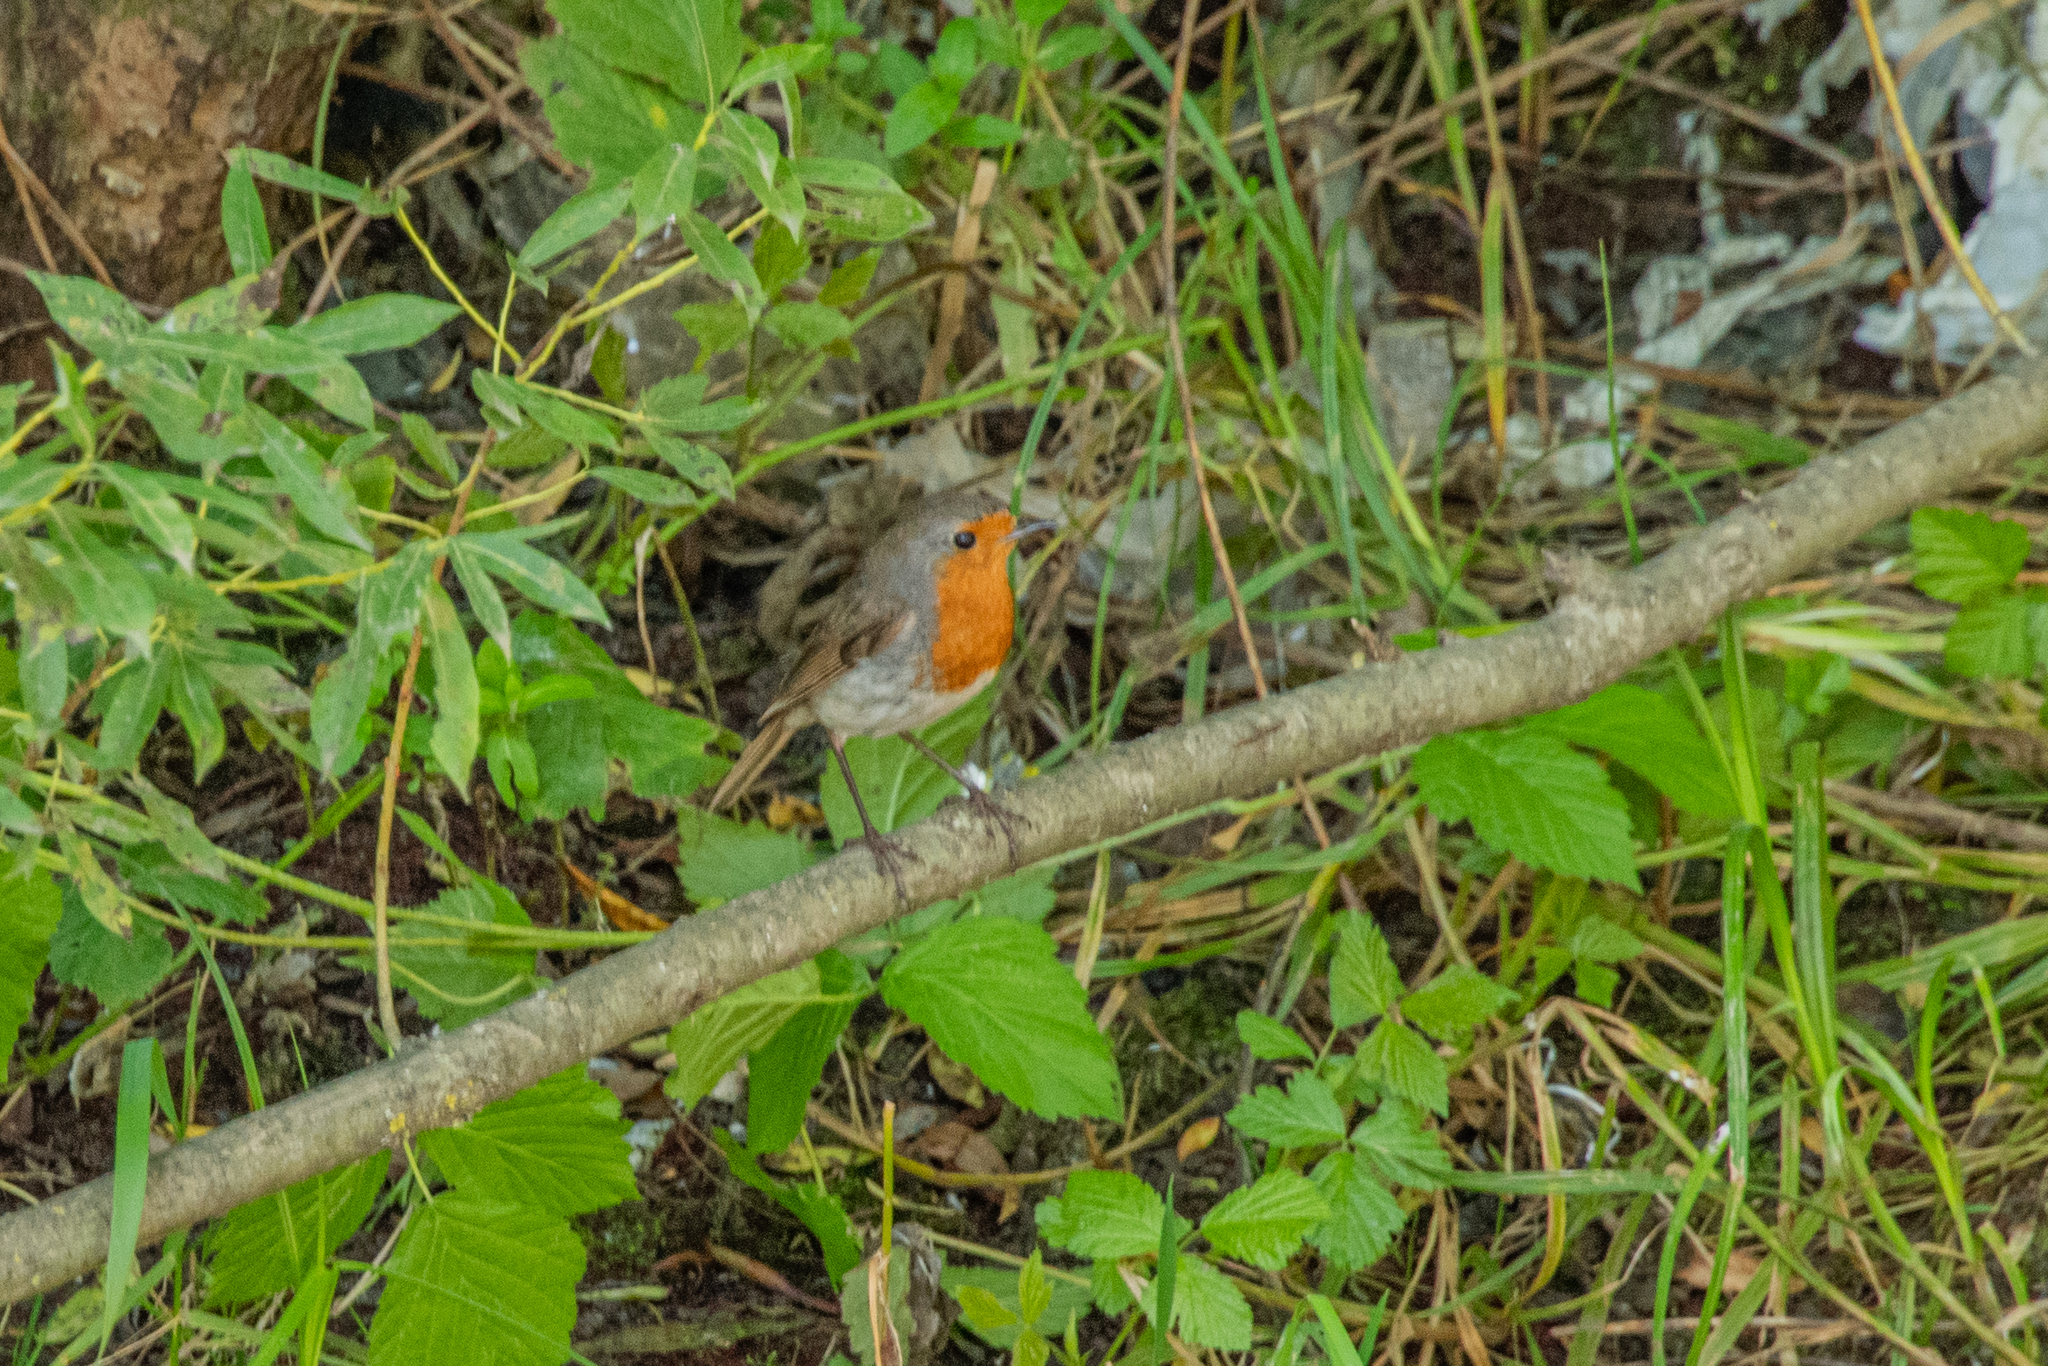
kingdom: Animalia
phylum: Chordata
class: Aves
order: Passeriformes
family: Muscicapidae
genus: Erithacus
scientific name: Erithacus rubecula
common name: European robin
